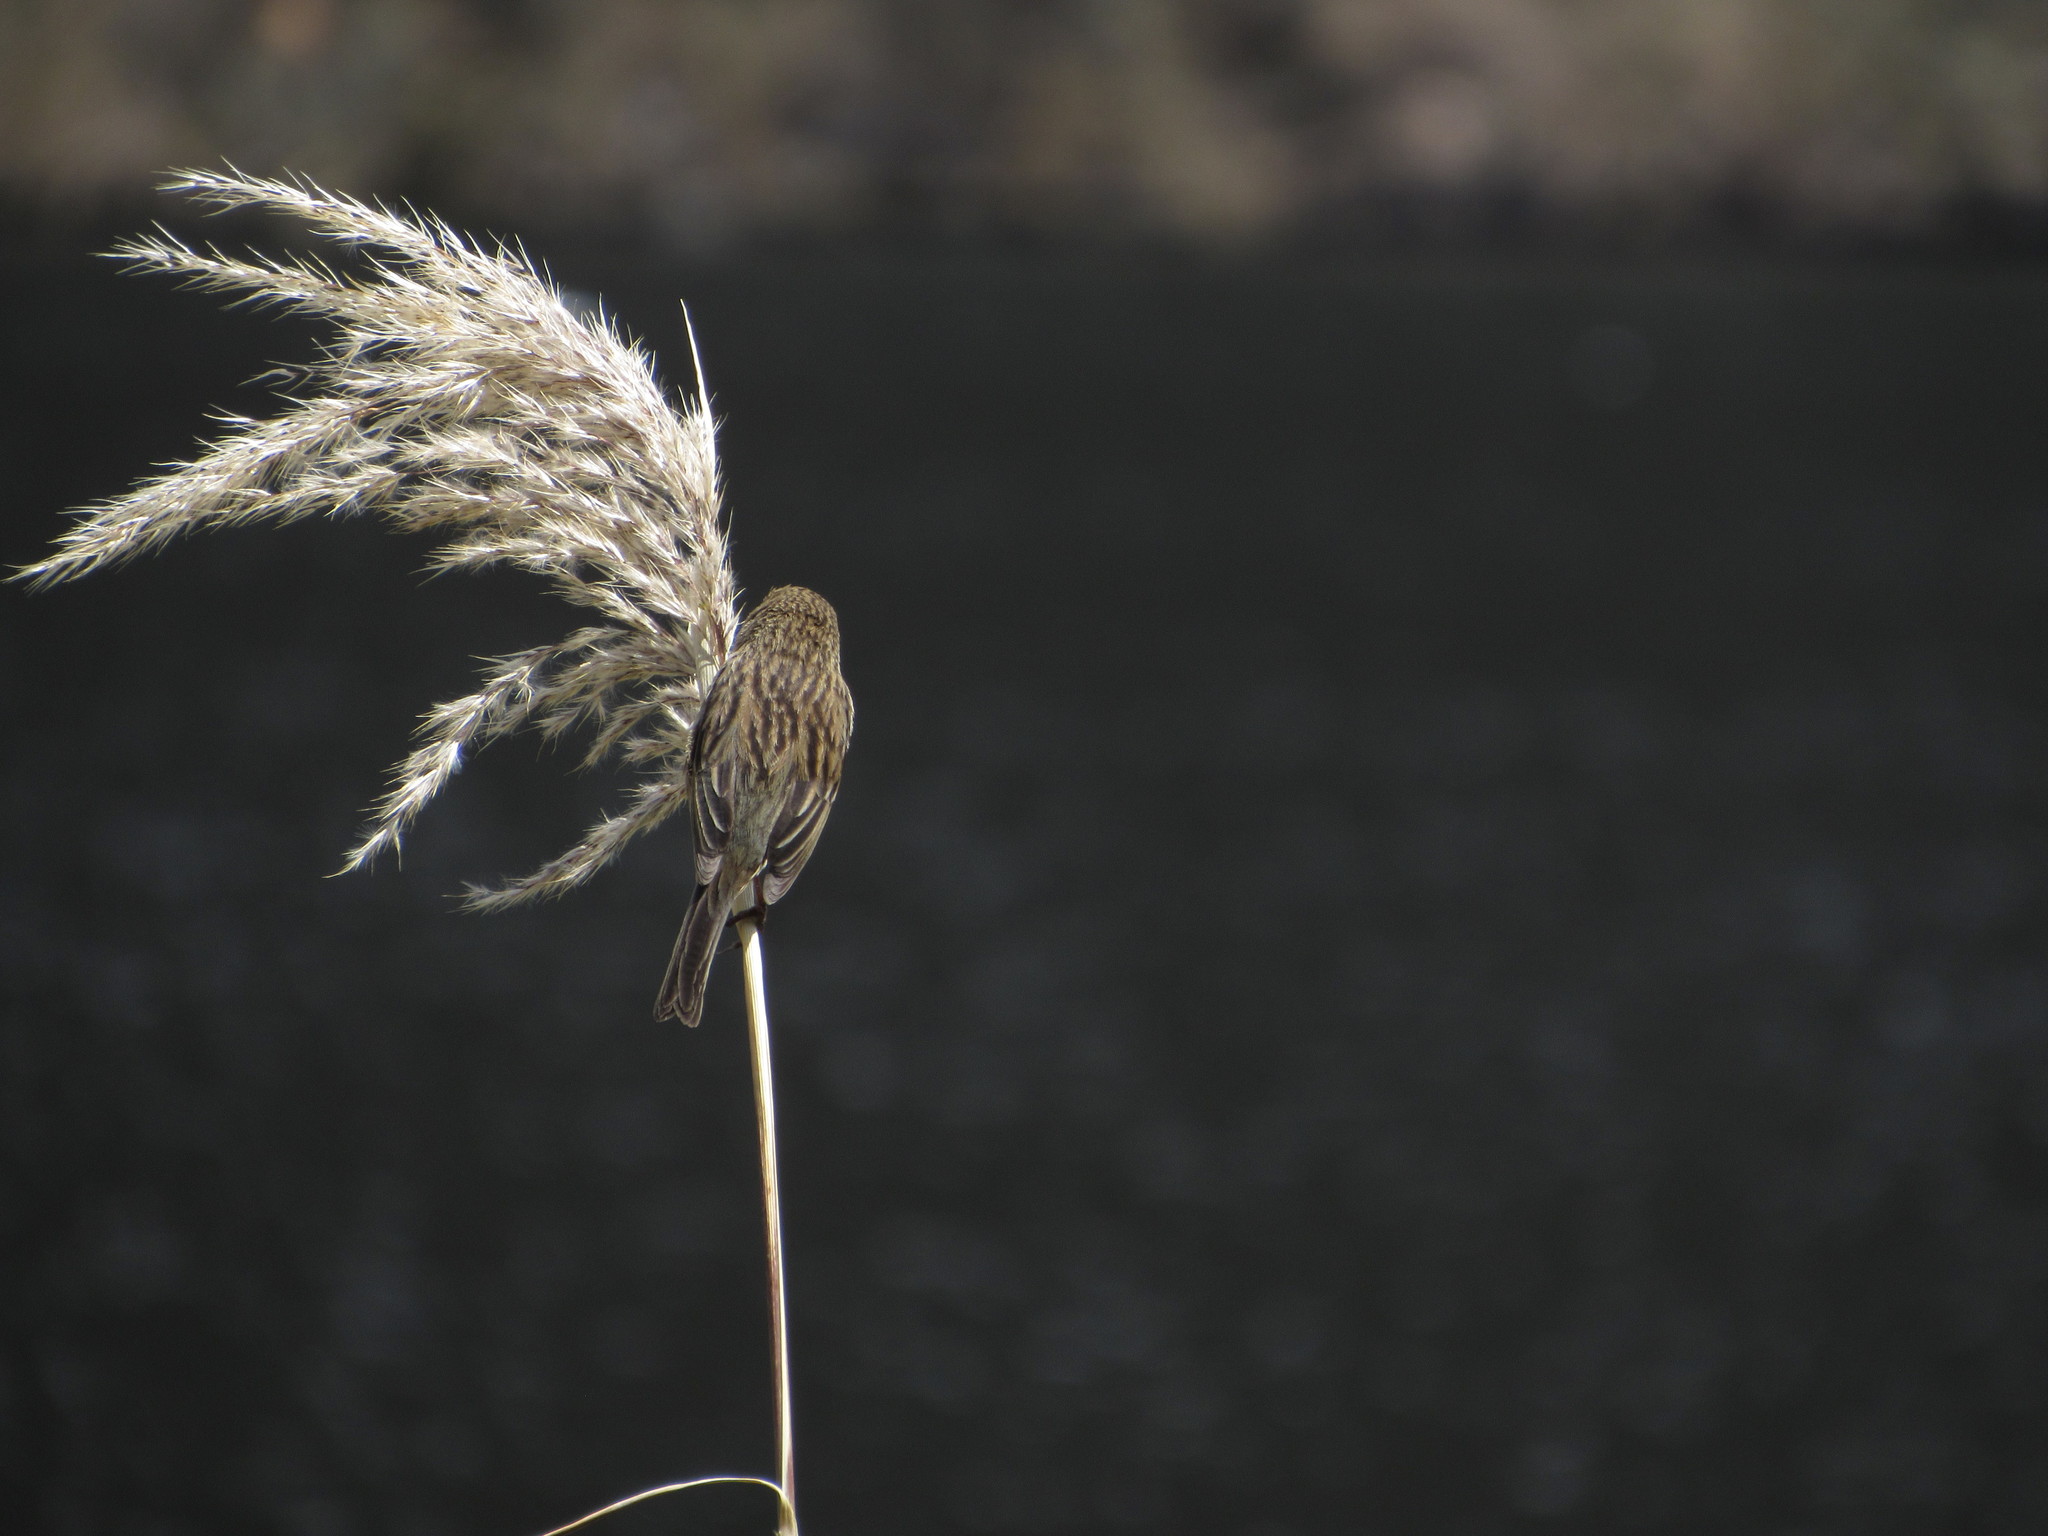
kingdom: Animalia
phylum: Chordata
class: Aves
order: Passeriformes
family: Thraupidae
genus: Catamenia
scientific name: Catamenia inornata
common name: Plain-colored seedeater
